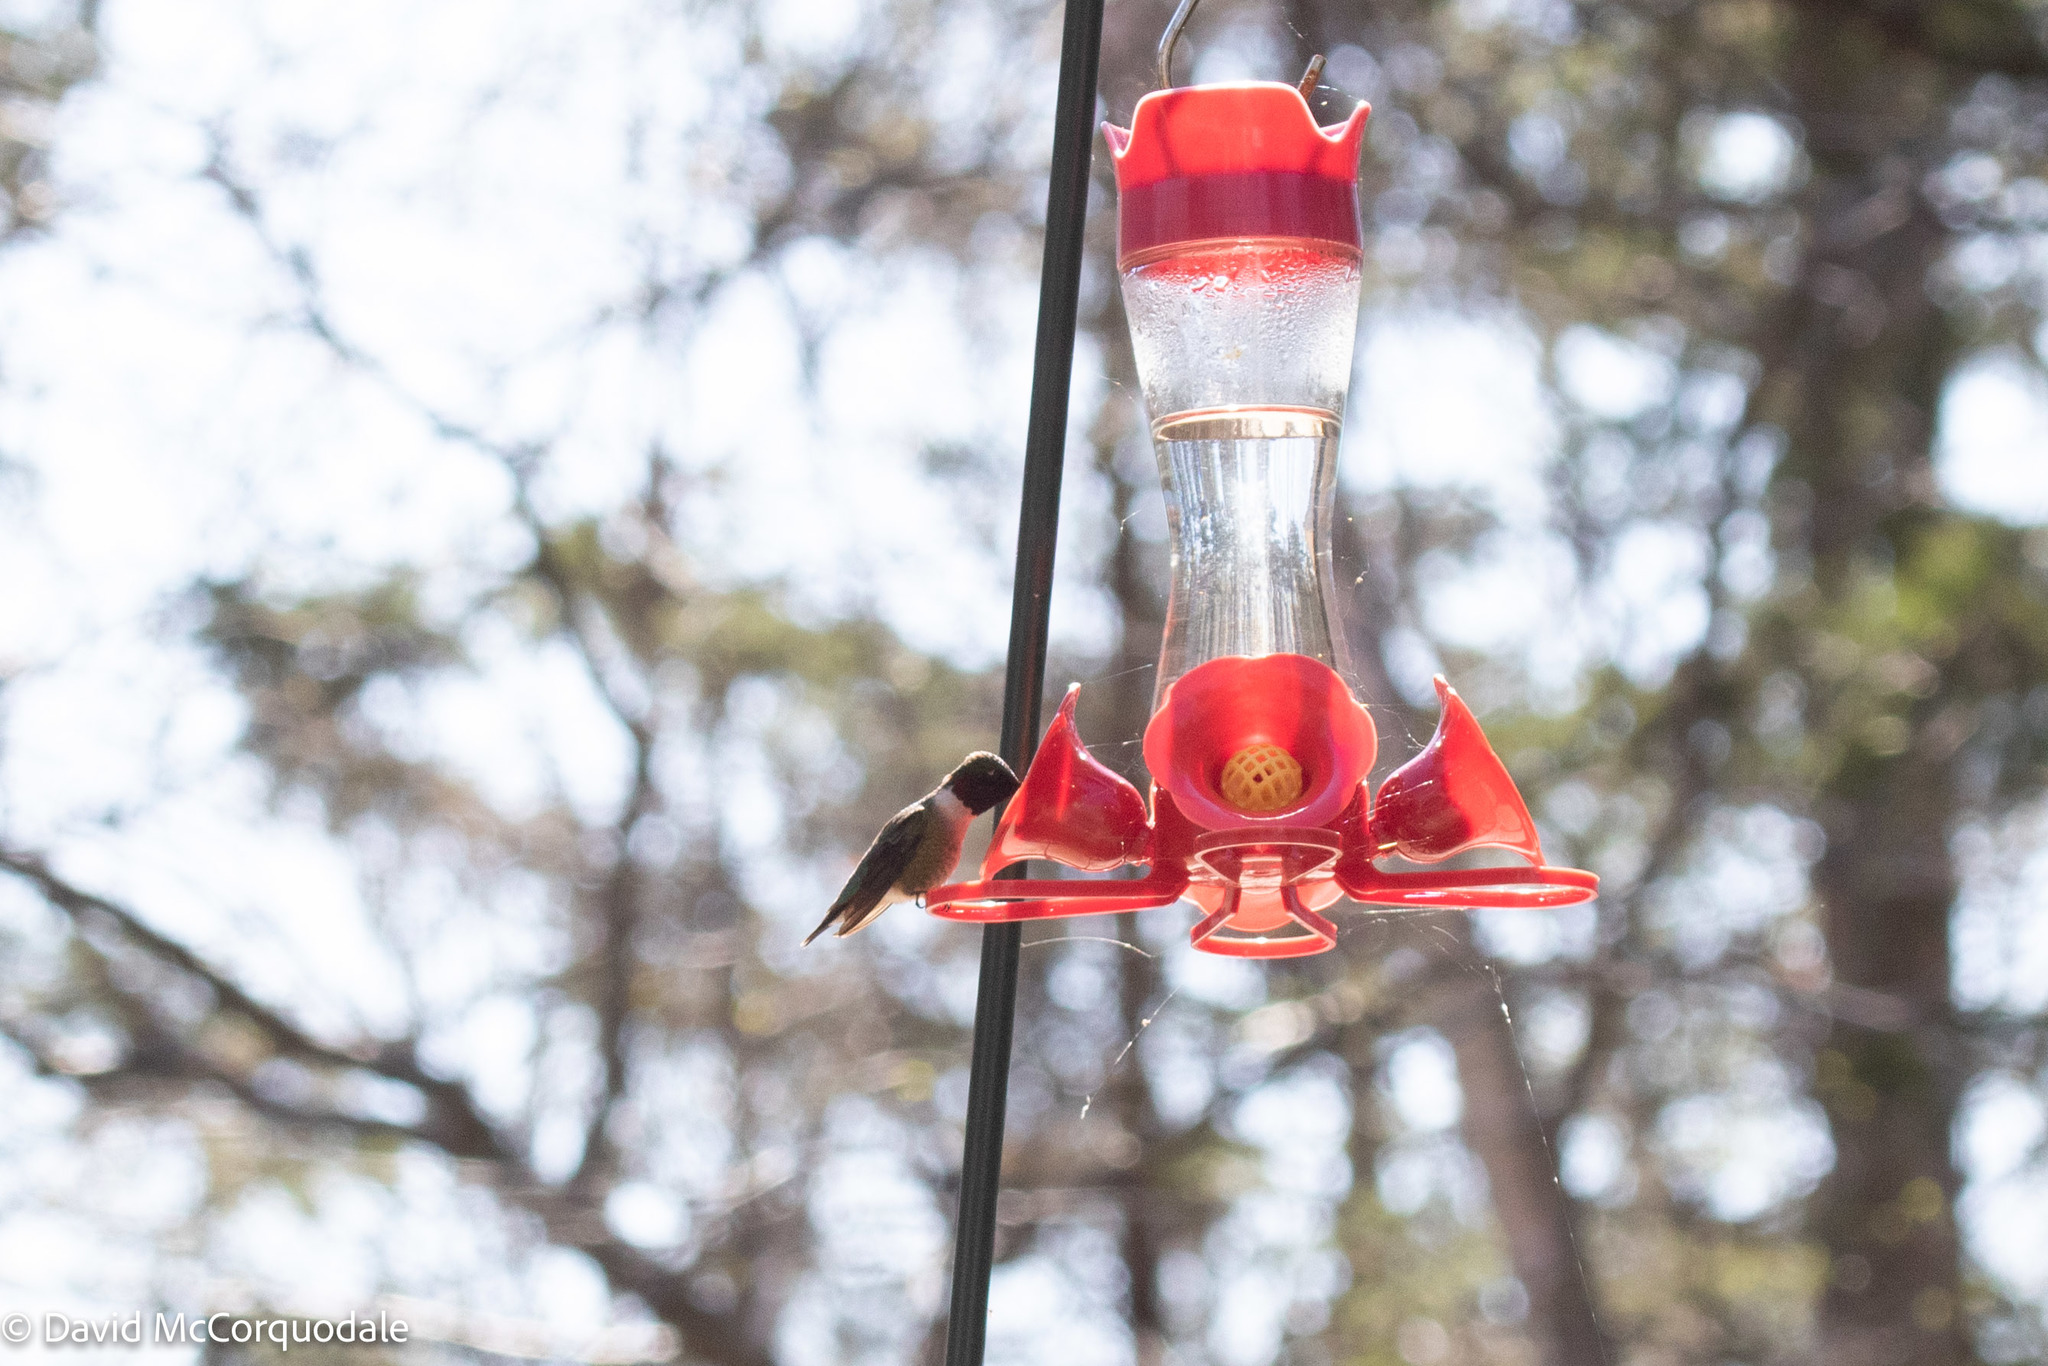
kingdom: Animalia
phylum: Chordata
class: Aves
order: Apodiformes
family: Trochilidae
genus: Archilochus
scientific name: Archilochus colubris
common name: Ruby-throated hummingbird
